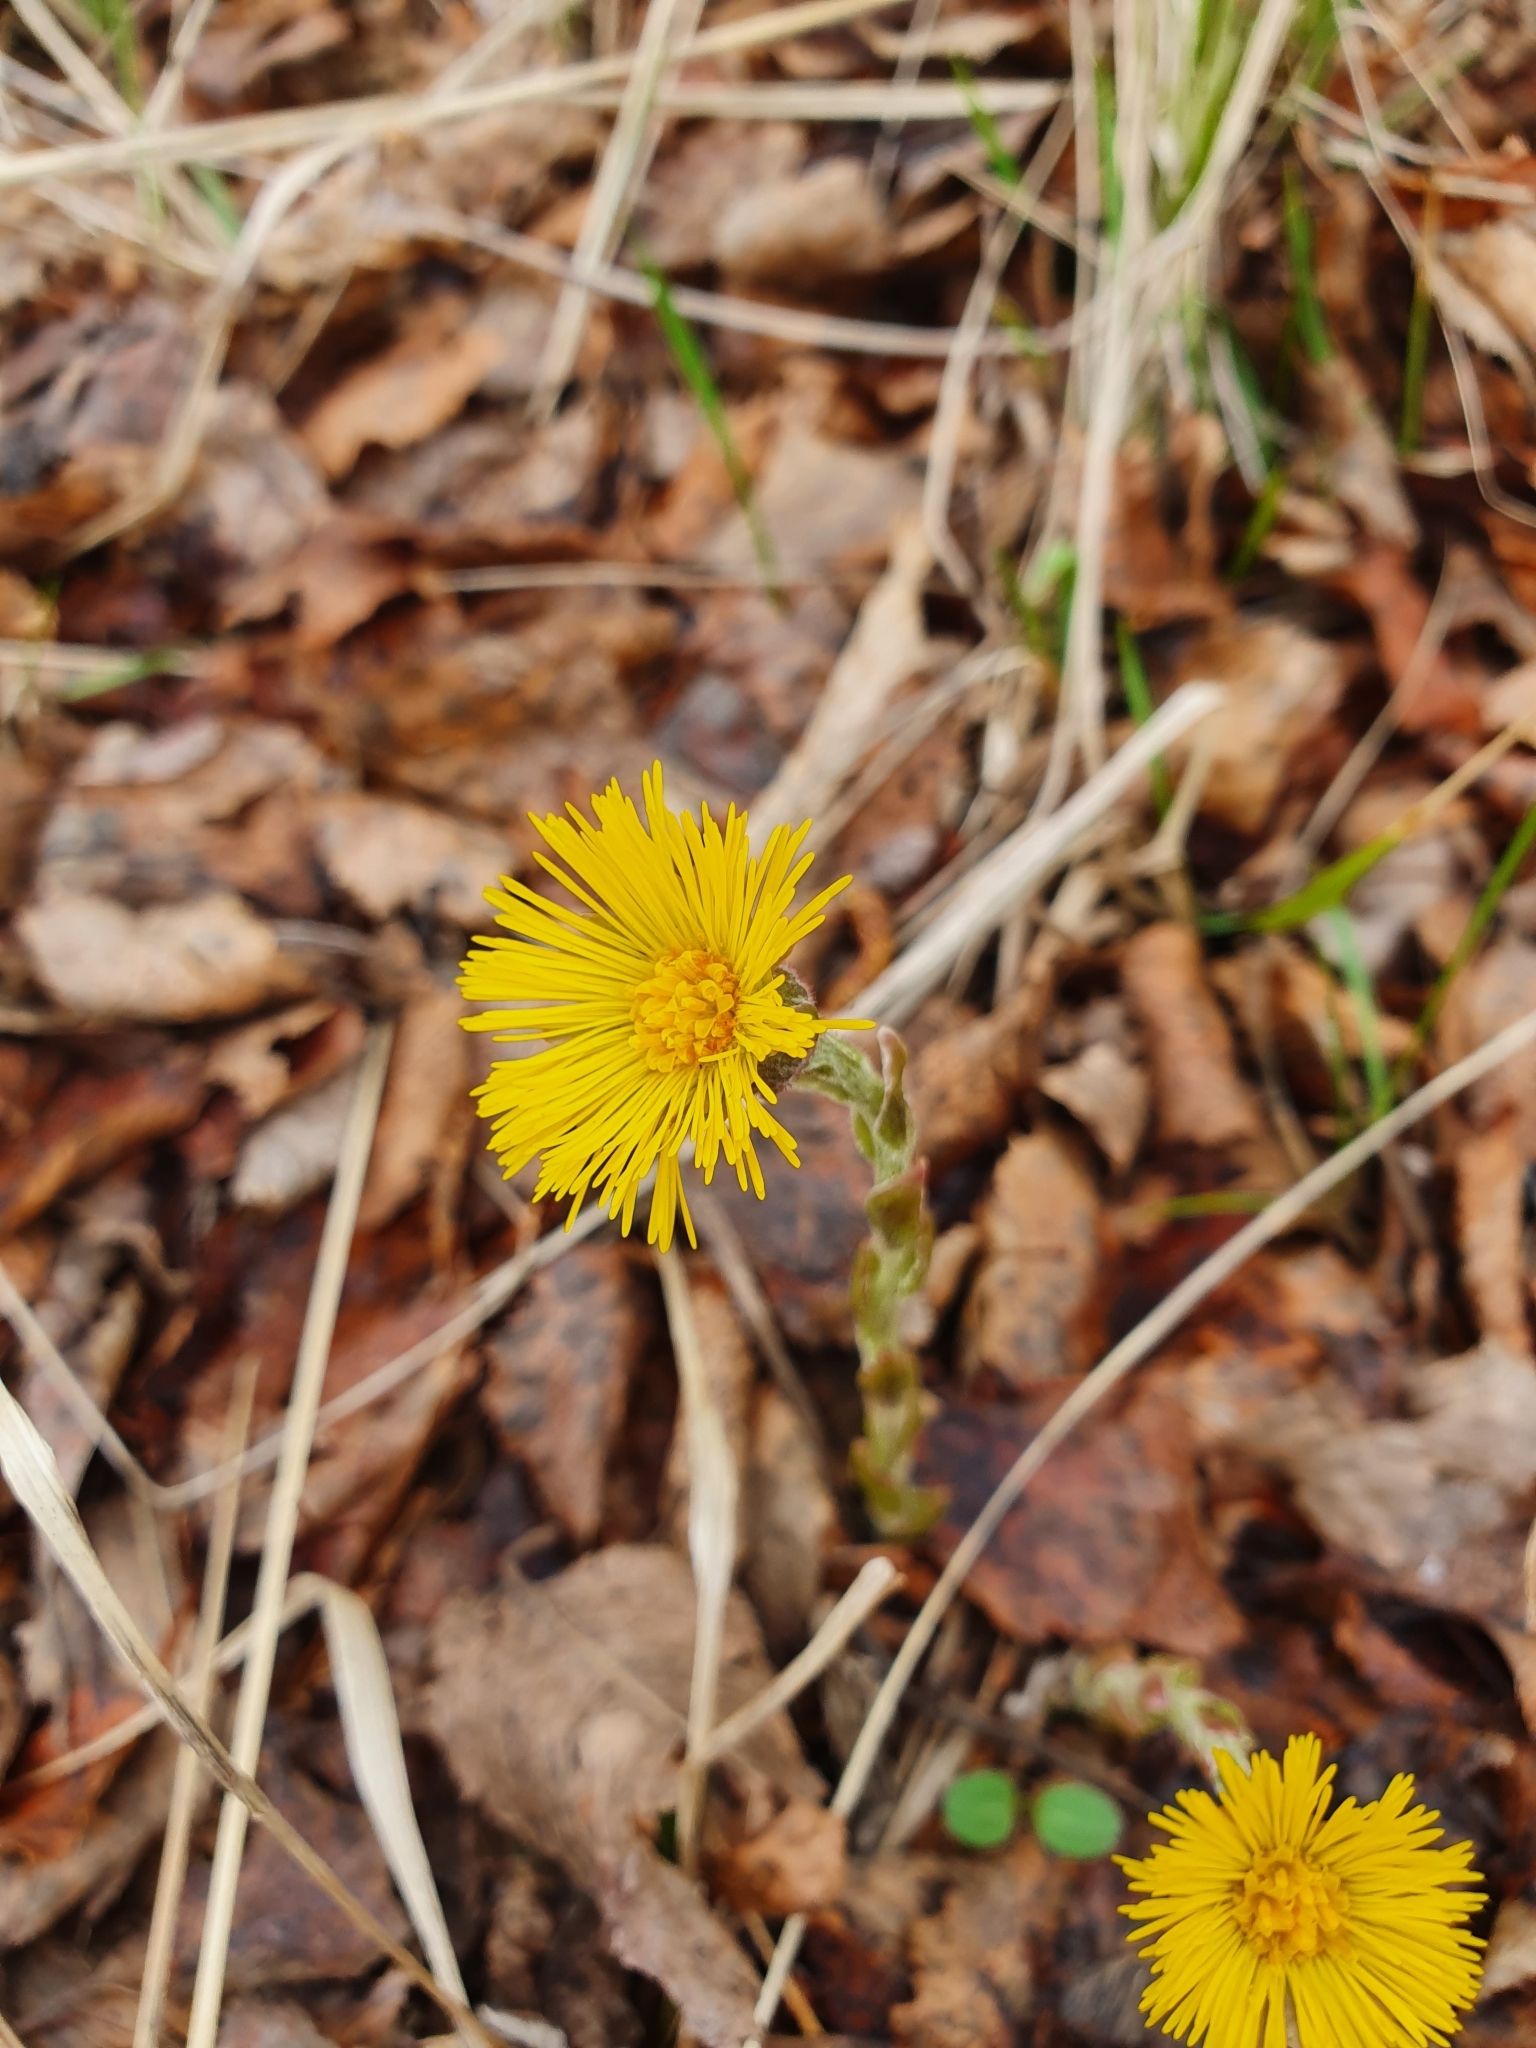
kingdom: Plantae
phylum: Tracheophyta
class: Magnoliopsida
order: Asterales
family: Asteraceae
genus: Tussilago
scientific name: Tussilago farfara
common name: Coltsfoot
